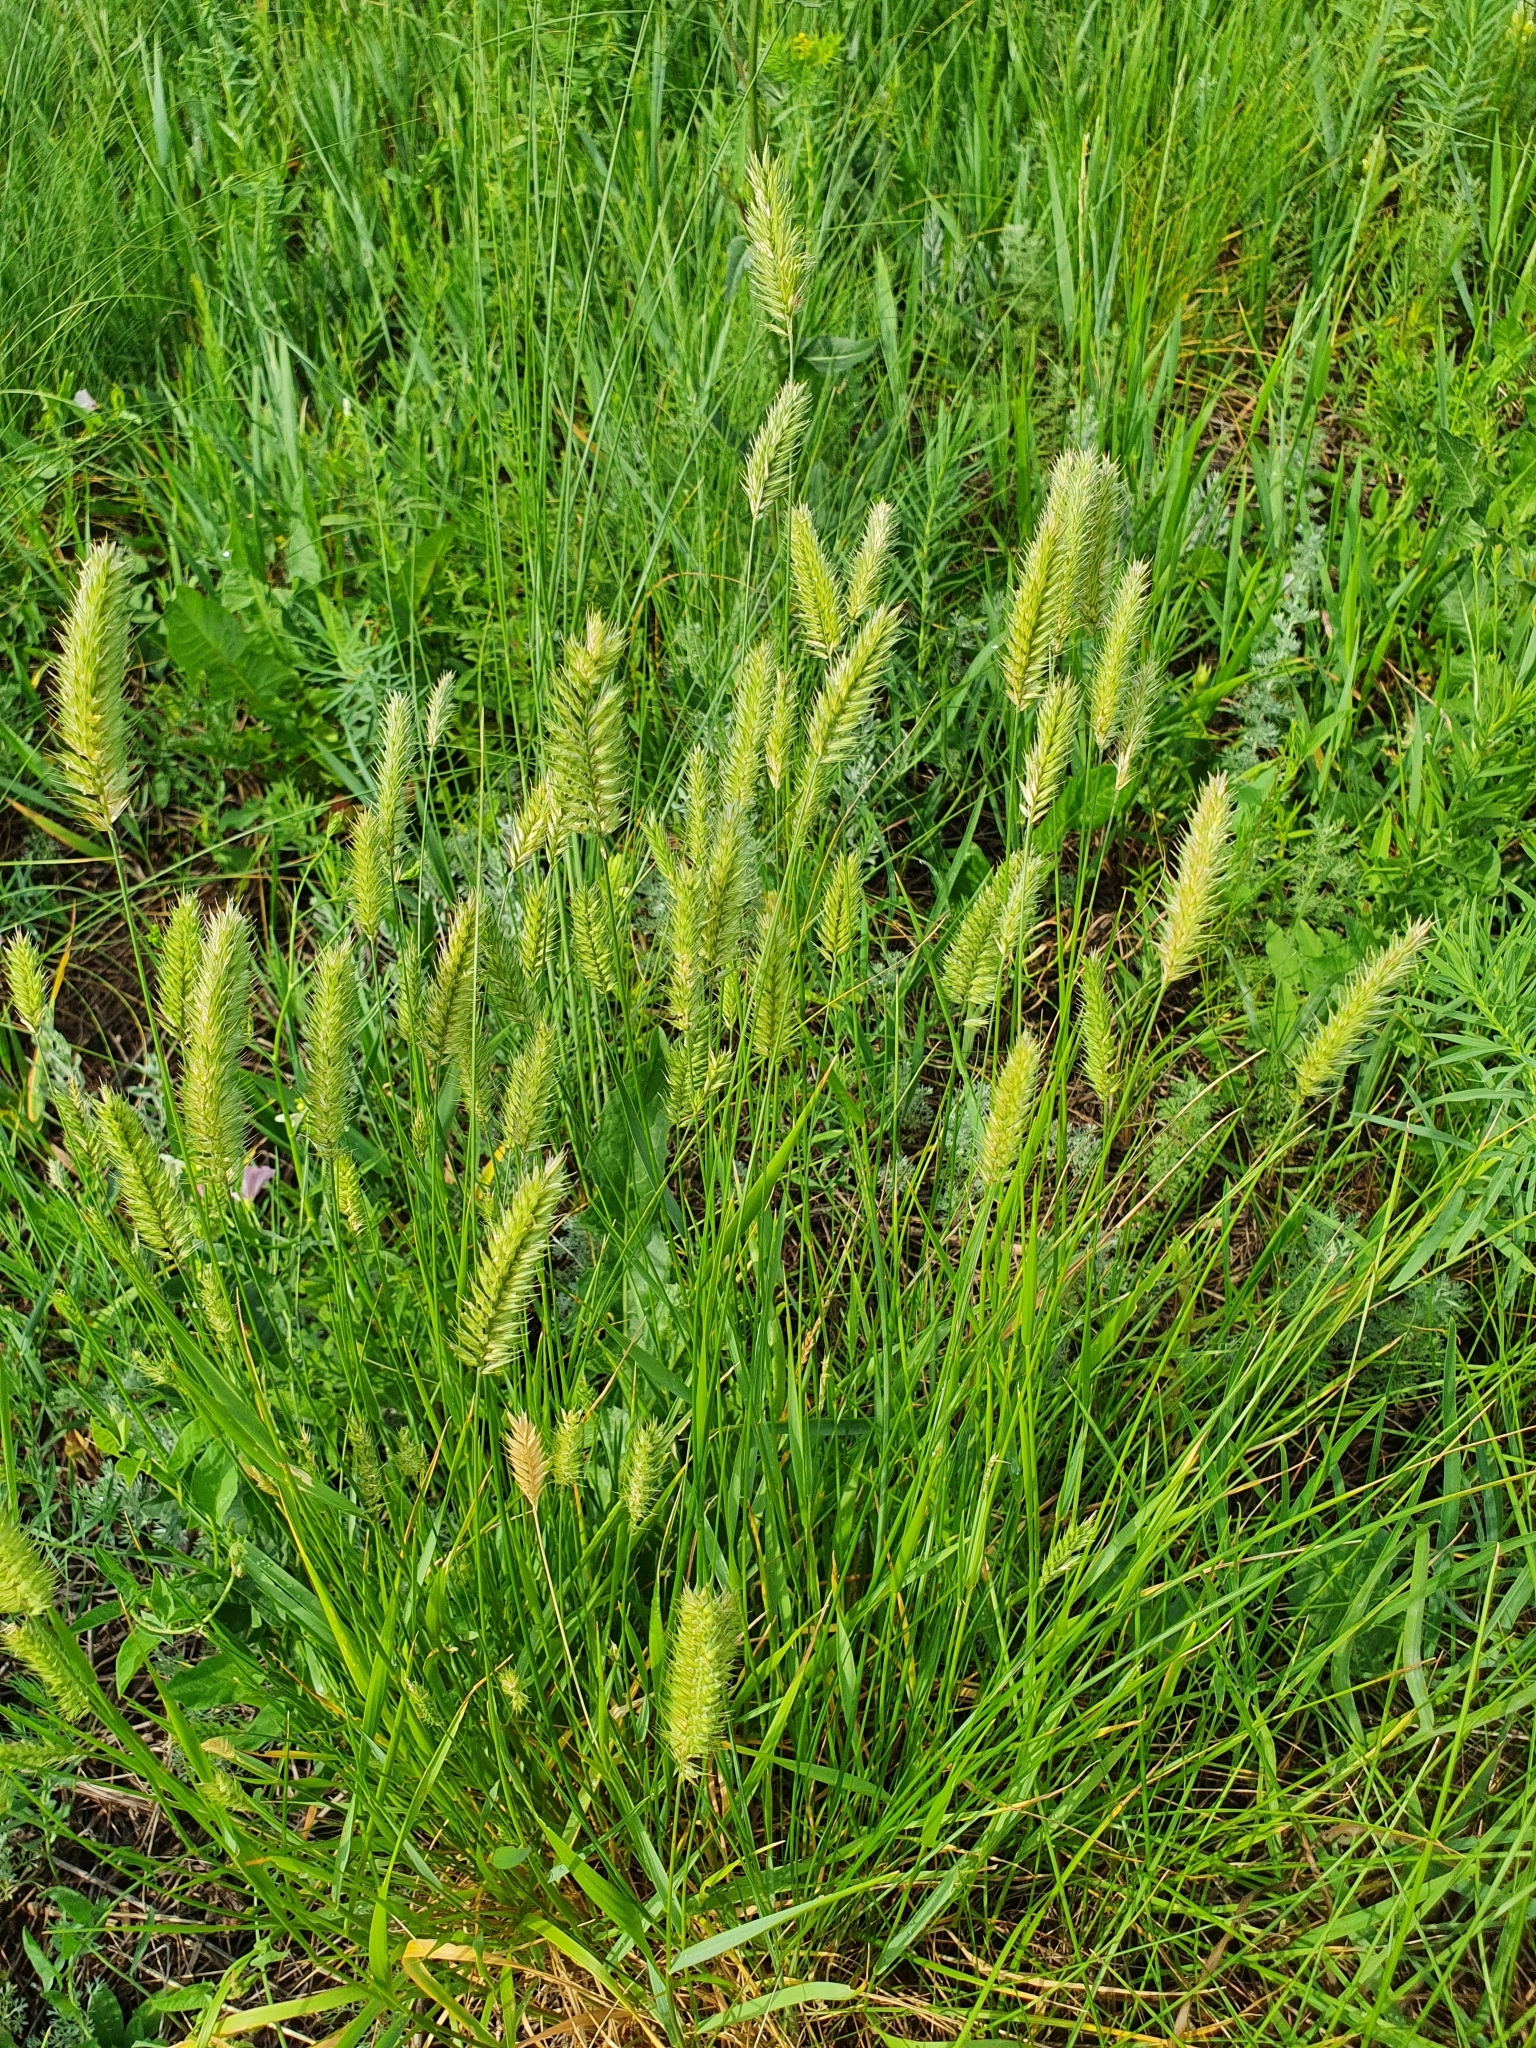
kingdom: Plantae
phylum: Tracheophyta
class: Liliopsida
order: Poales
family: Poaceae
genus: Agropyron
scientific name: Agropyron cristatum
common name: Crested wheatgrass
